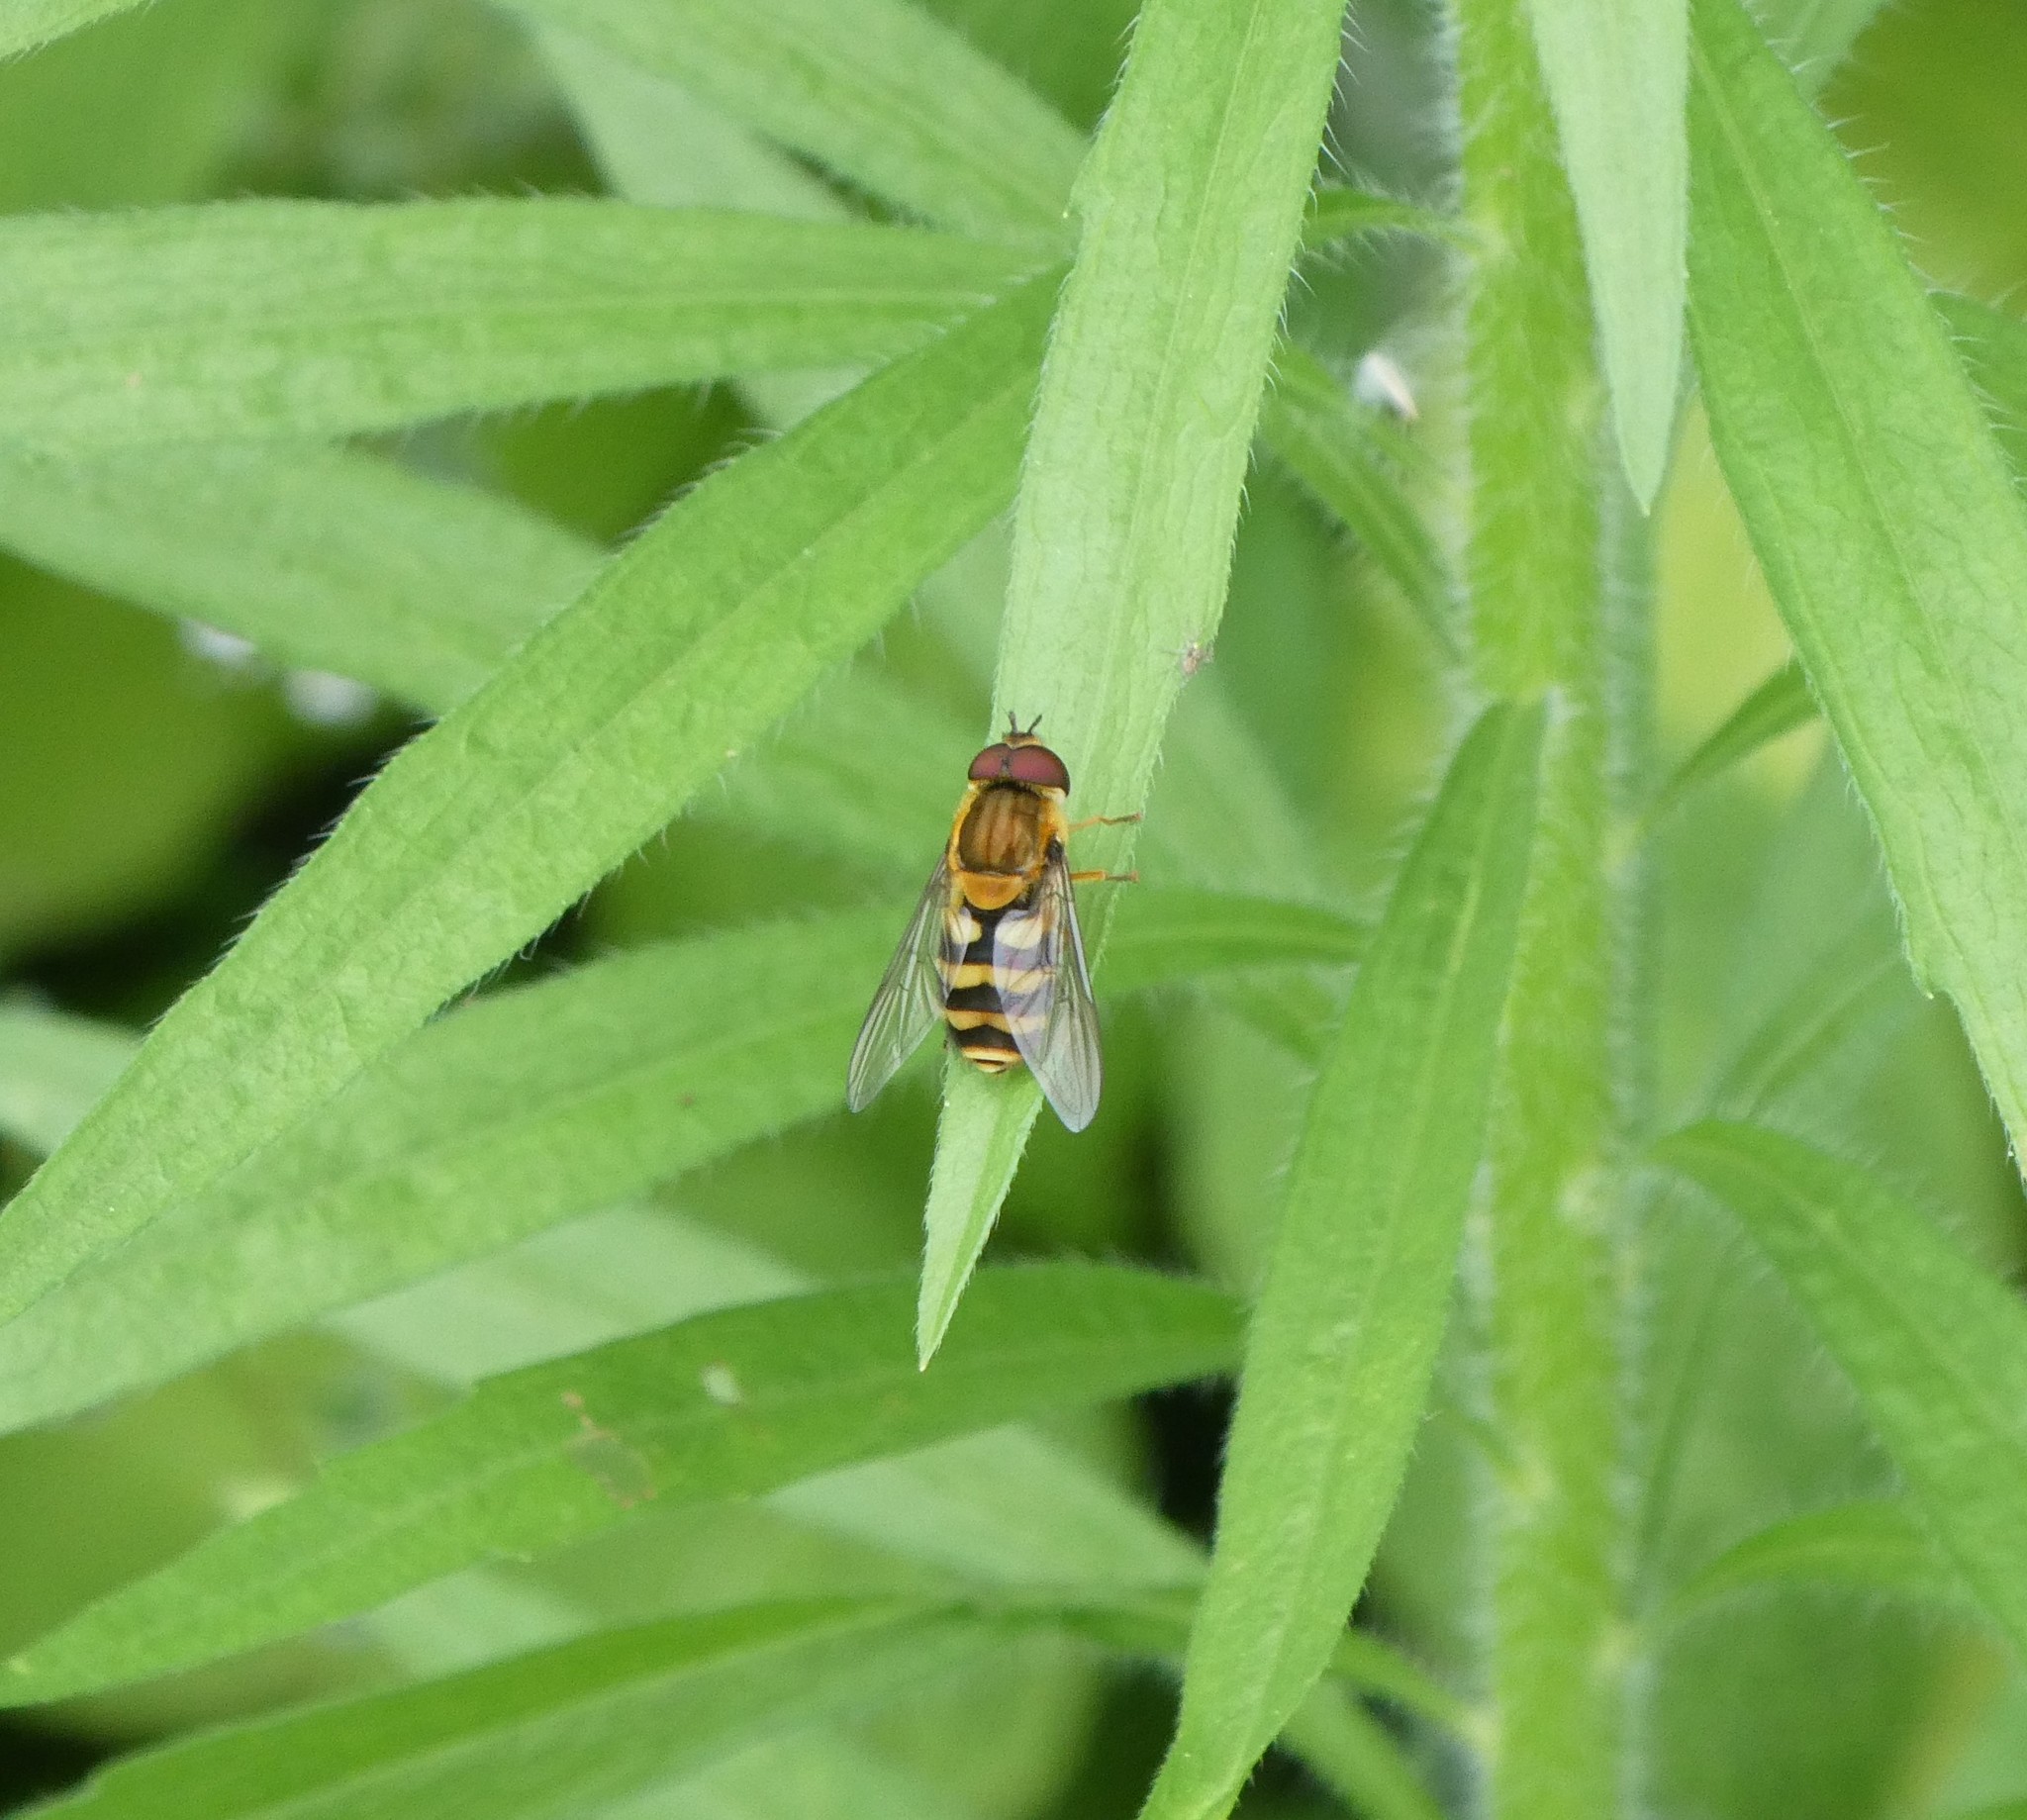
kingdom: Animalia
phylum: Arthropoda
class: Insecta
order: Diptera
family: Syrphidae
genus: Syrphus
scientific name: Syrphus
